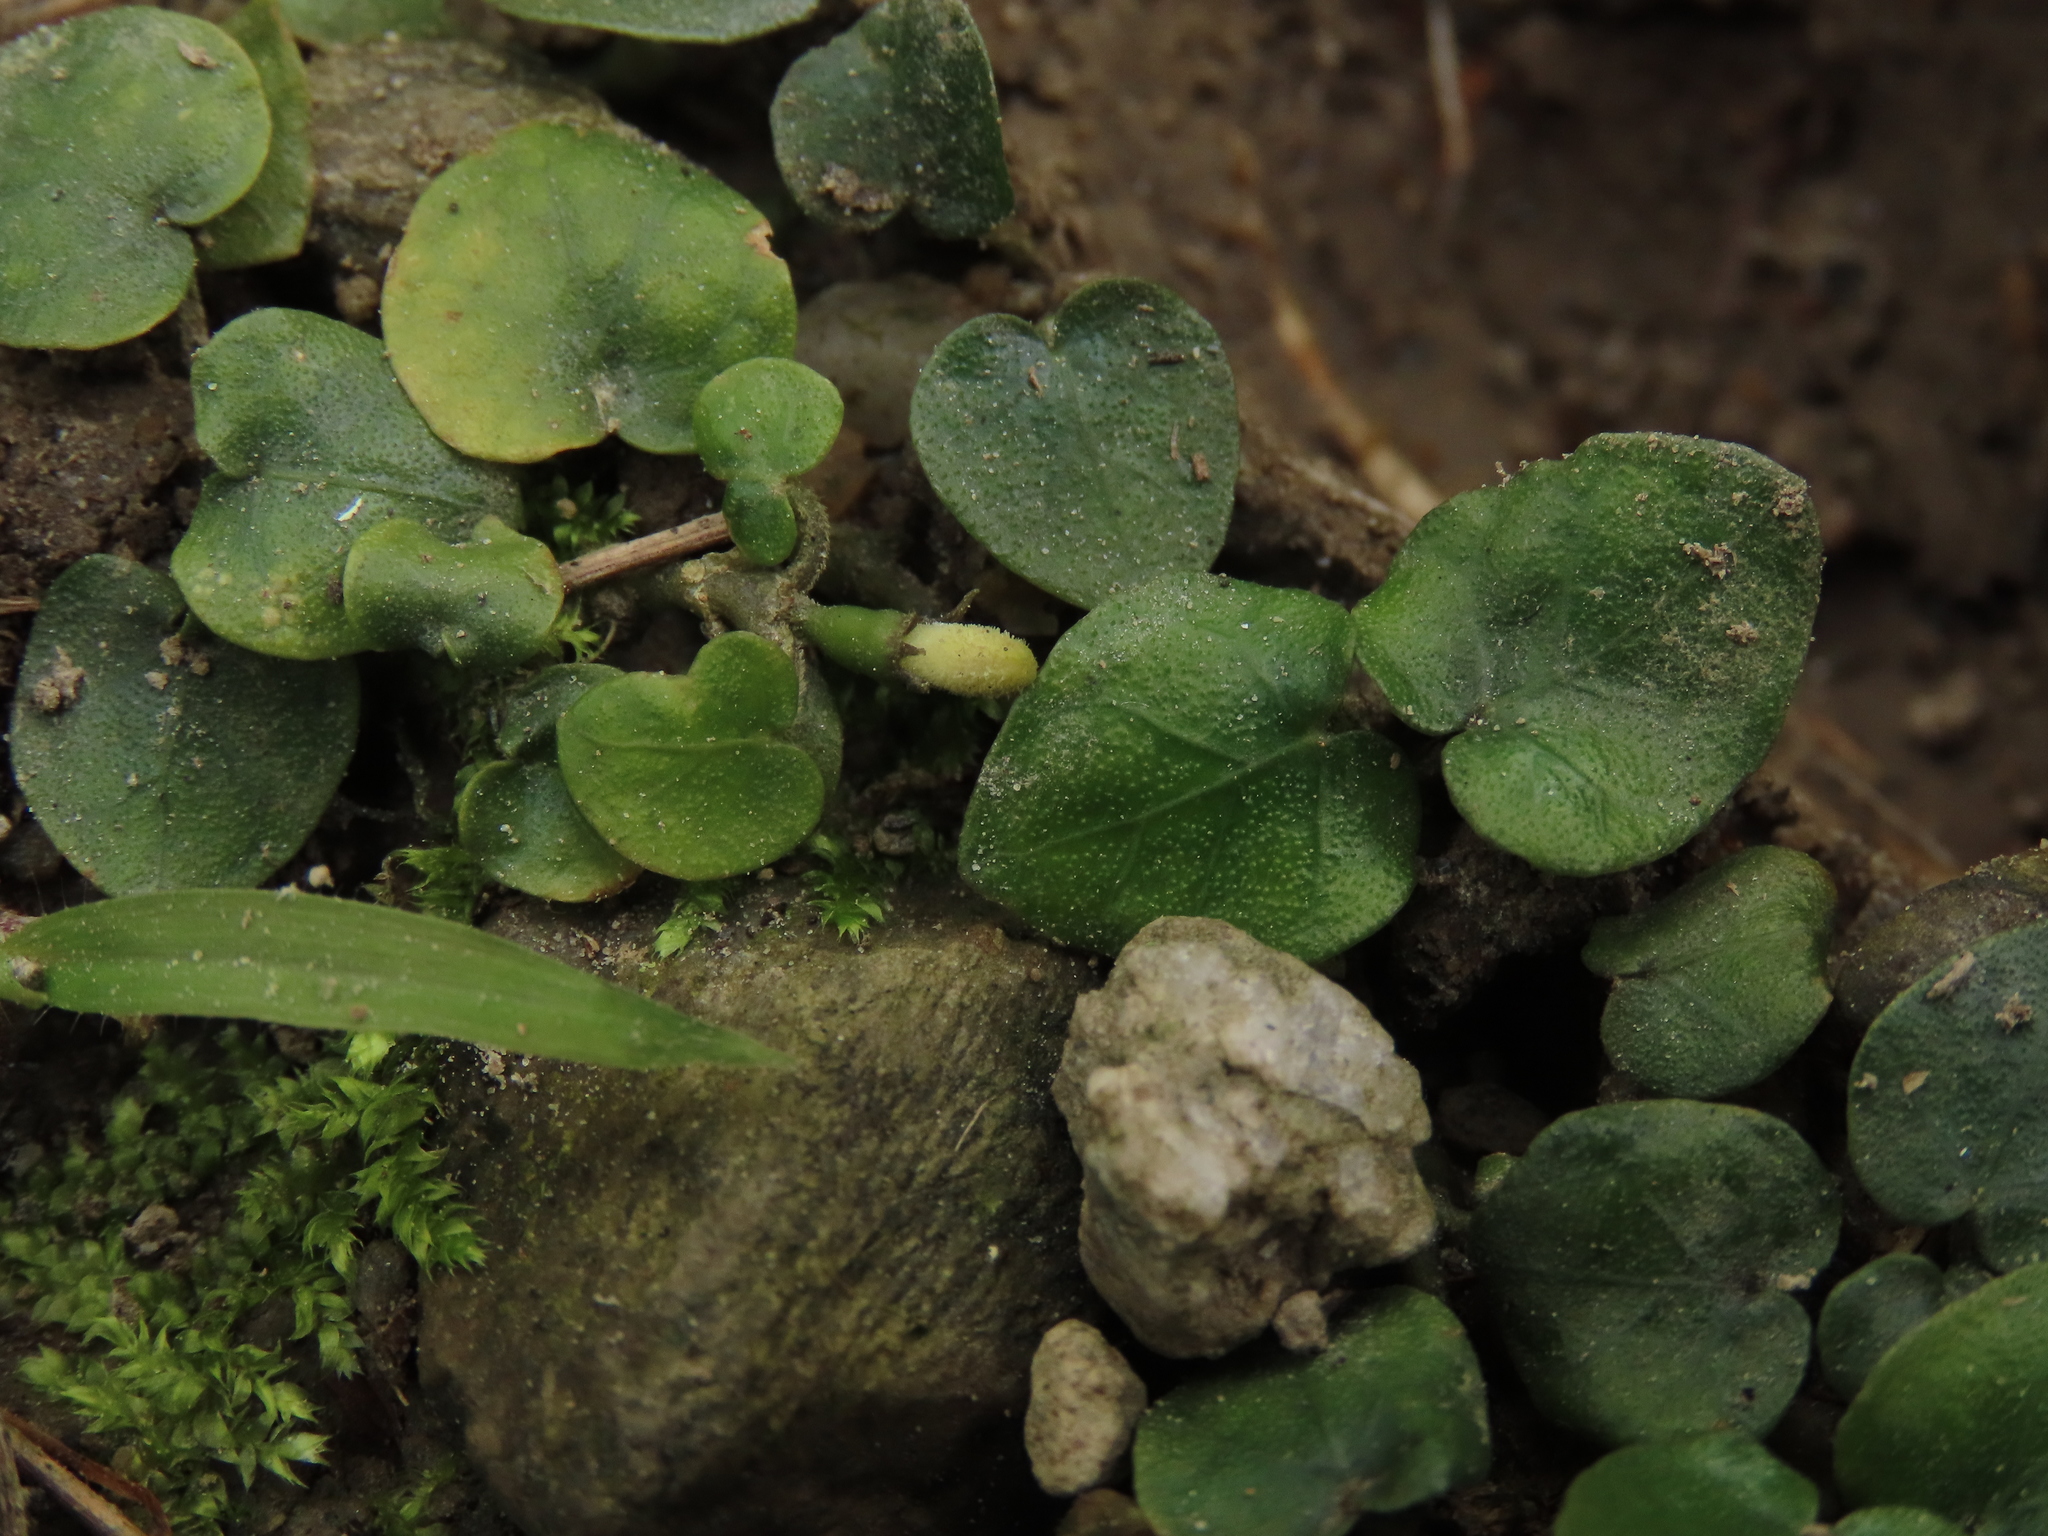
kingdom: Plantae
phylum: Tracheophyta
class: Magnoliopsida
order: Gentianales
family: Rubiaceae
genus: Geophila
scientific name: Geophila herbacea
